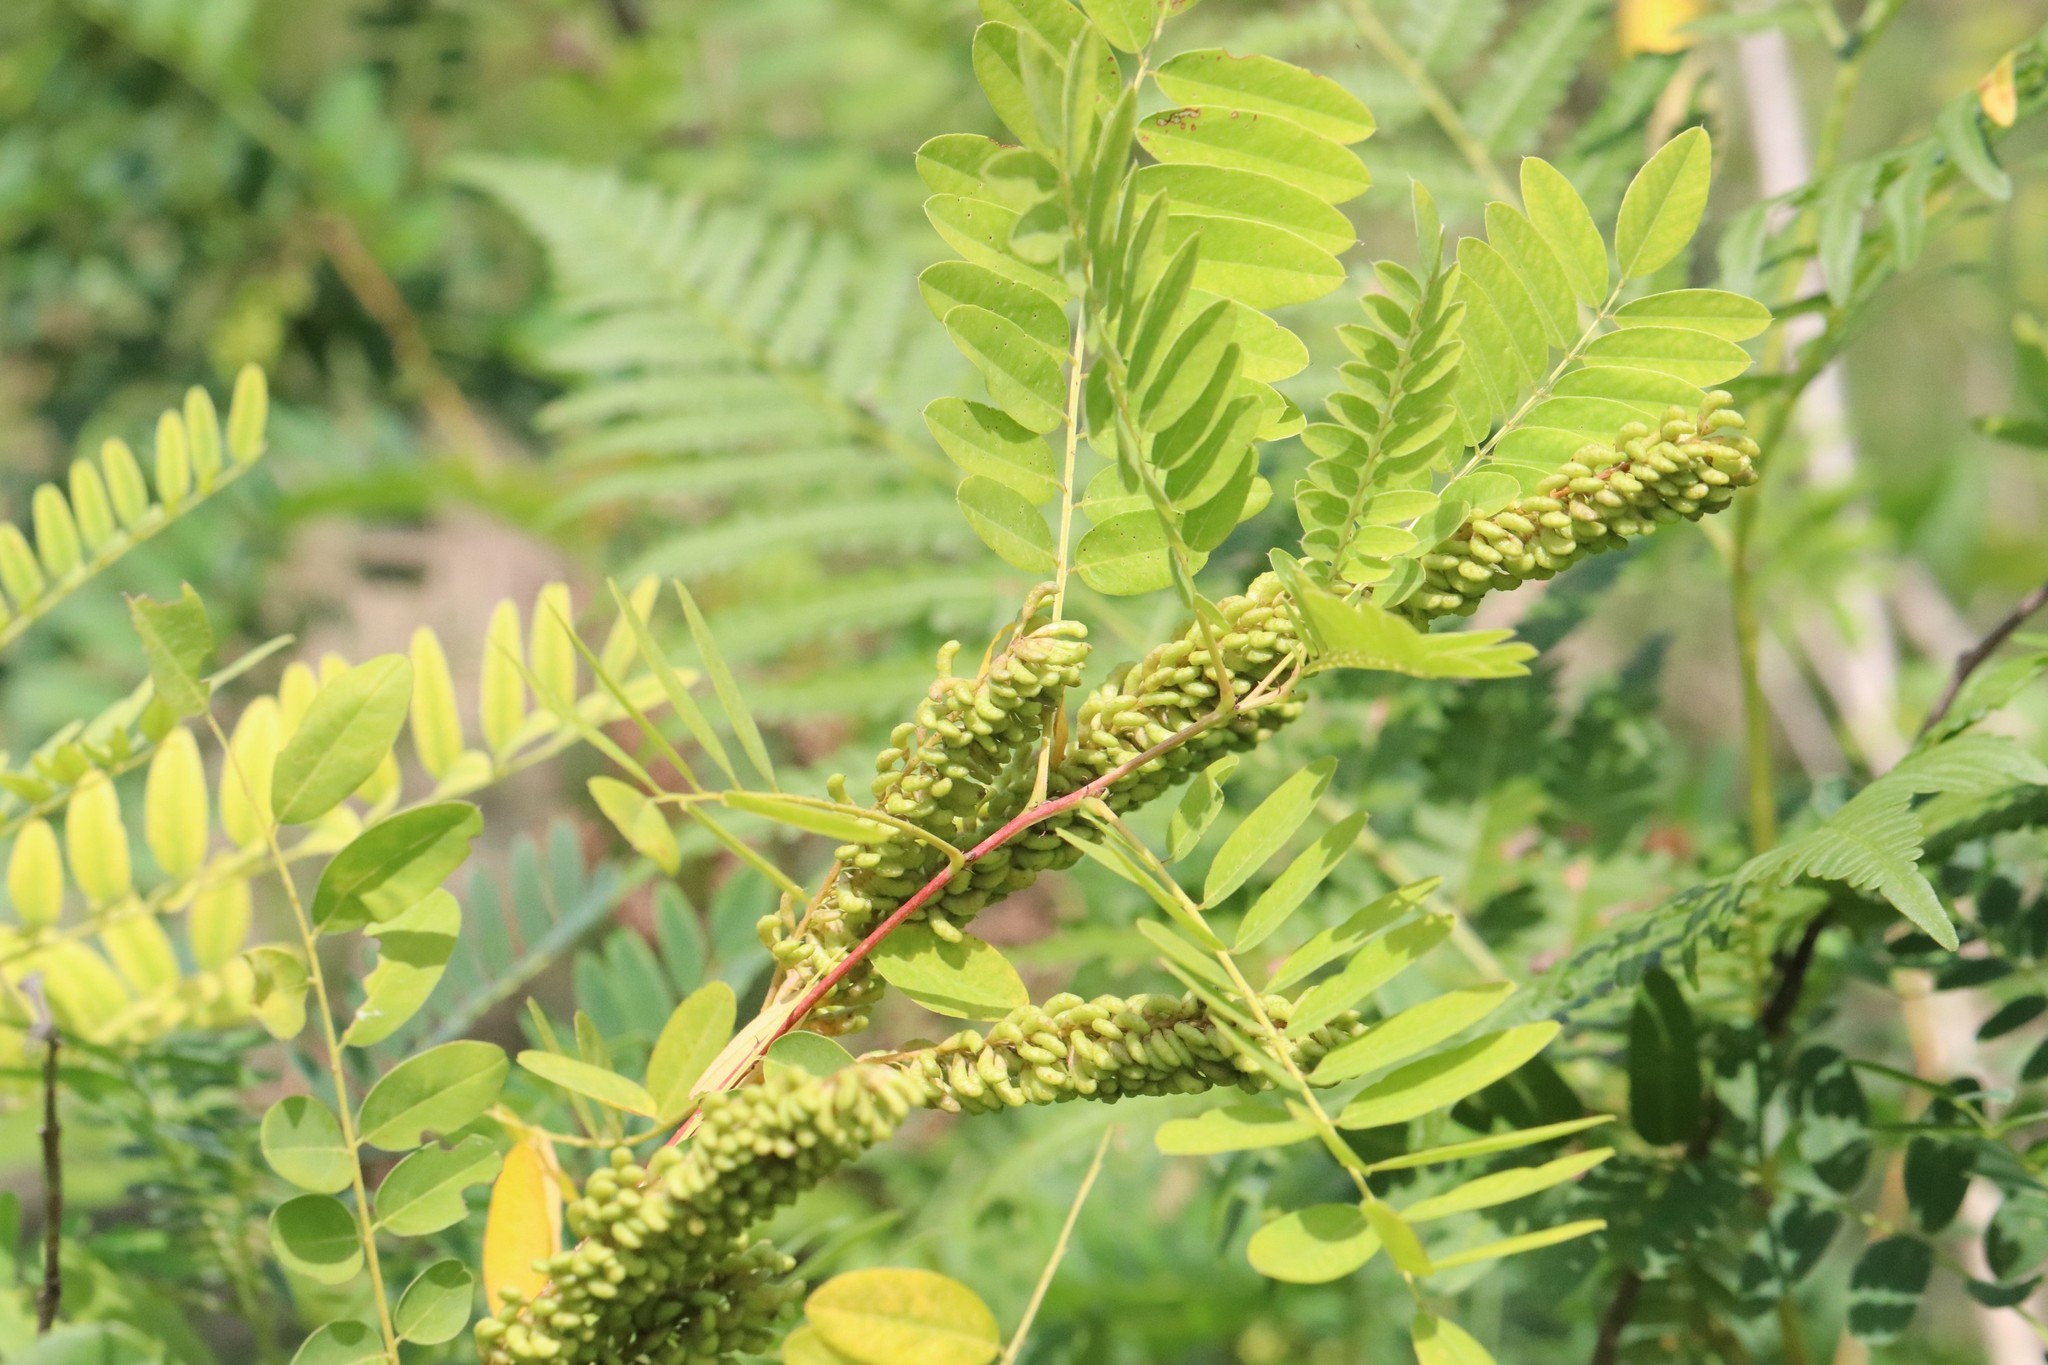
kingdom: Plantae
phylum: Tracheophyta
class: Magnoliopsida
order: Fabales
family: Fabaceae
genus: Amorpha
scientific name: Amorpha fruticosa
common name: False indigo
